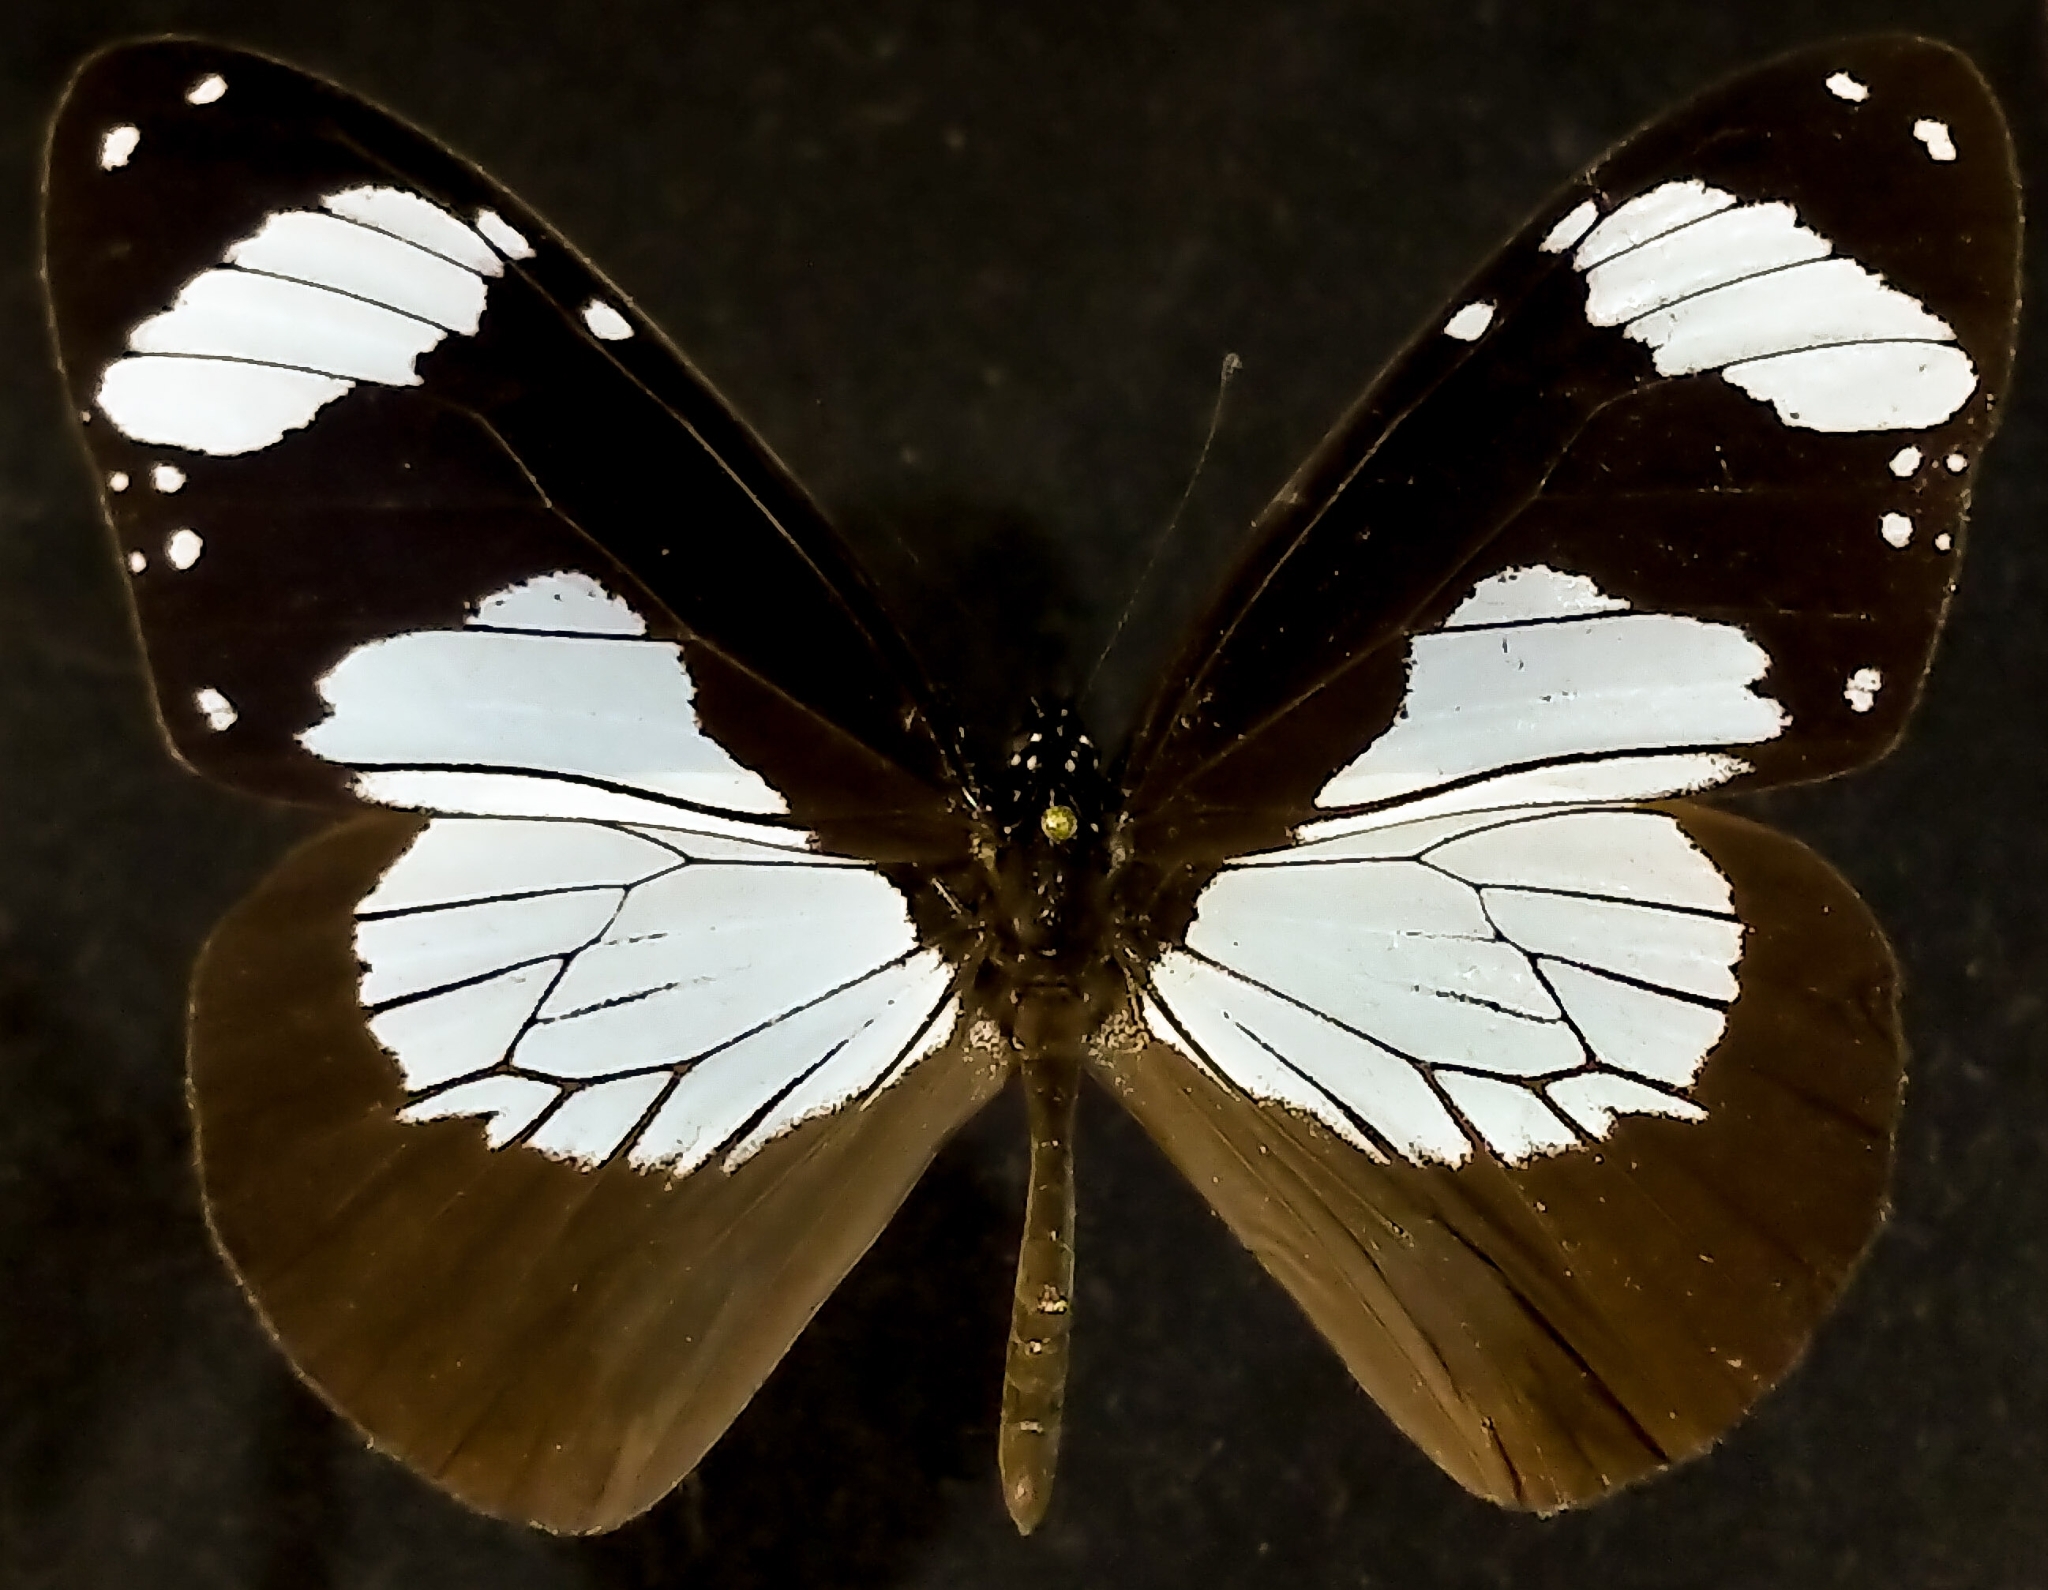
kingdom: Animalia
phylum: Arthropoda
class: Insecta
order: Lepidoptera
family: Nymphalidae
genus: Amauris
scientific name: Amauris niavius
